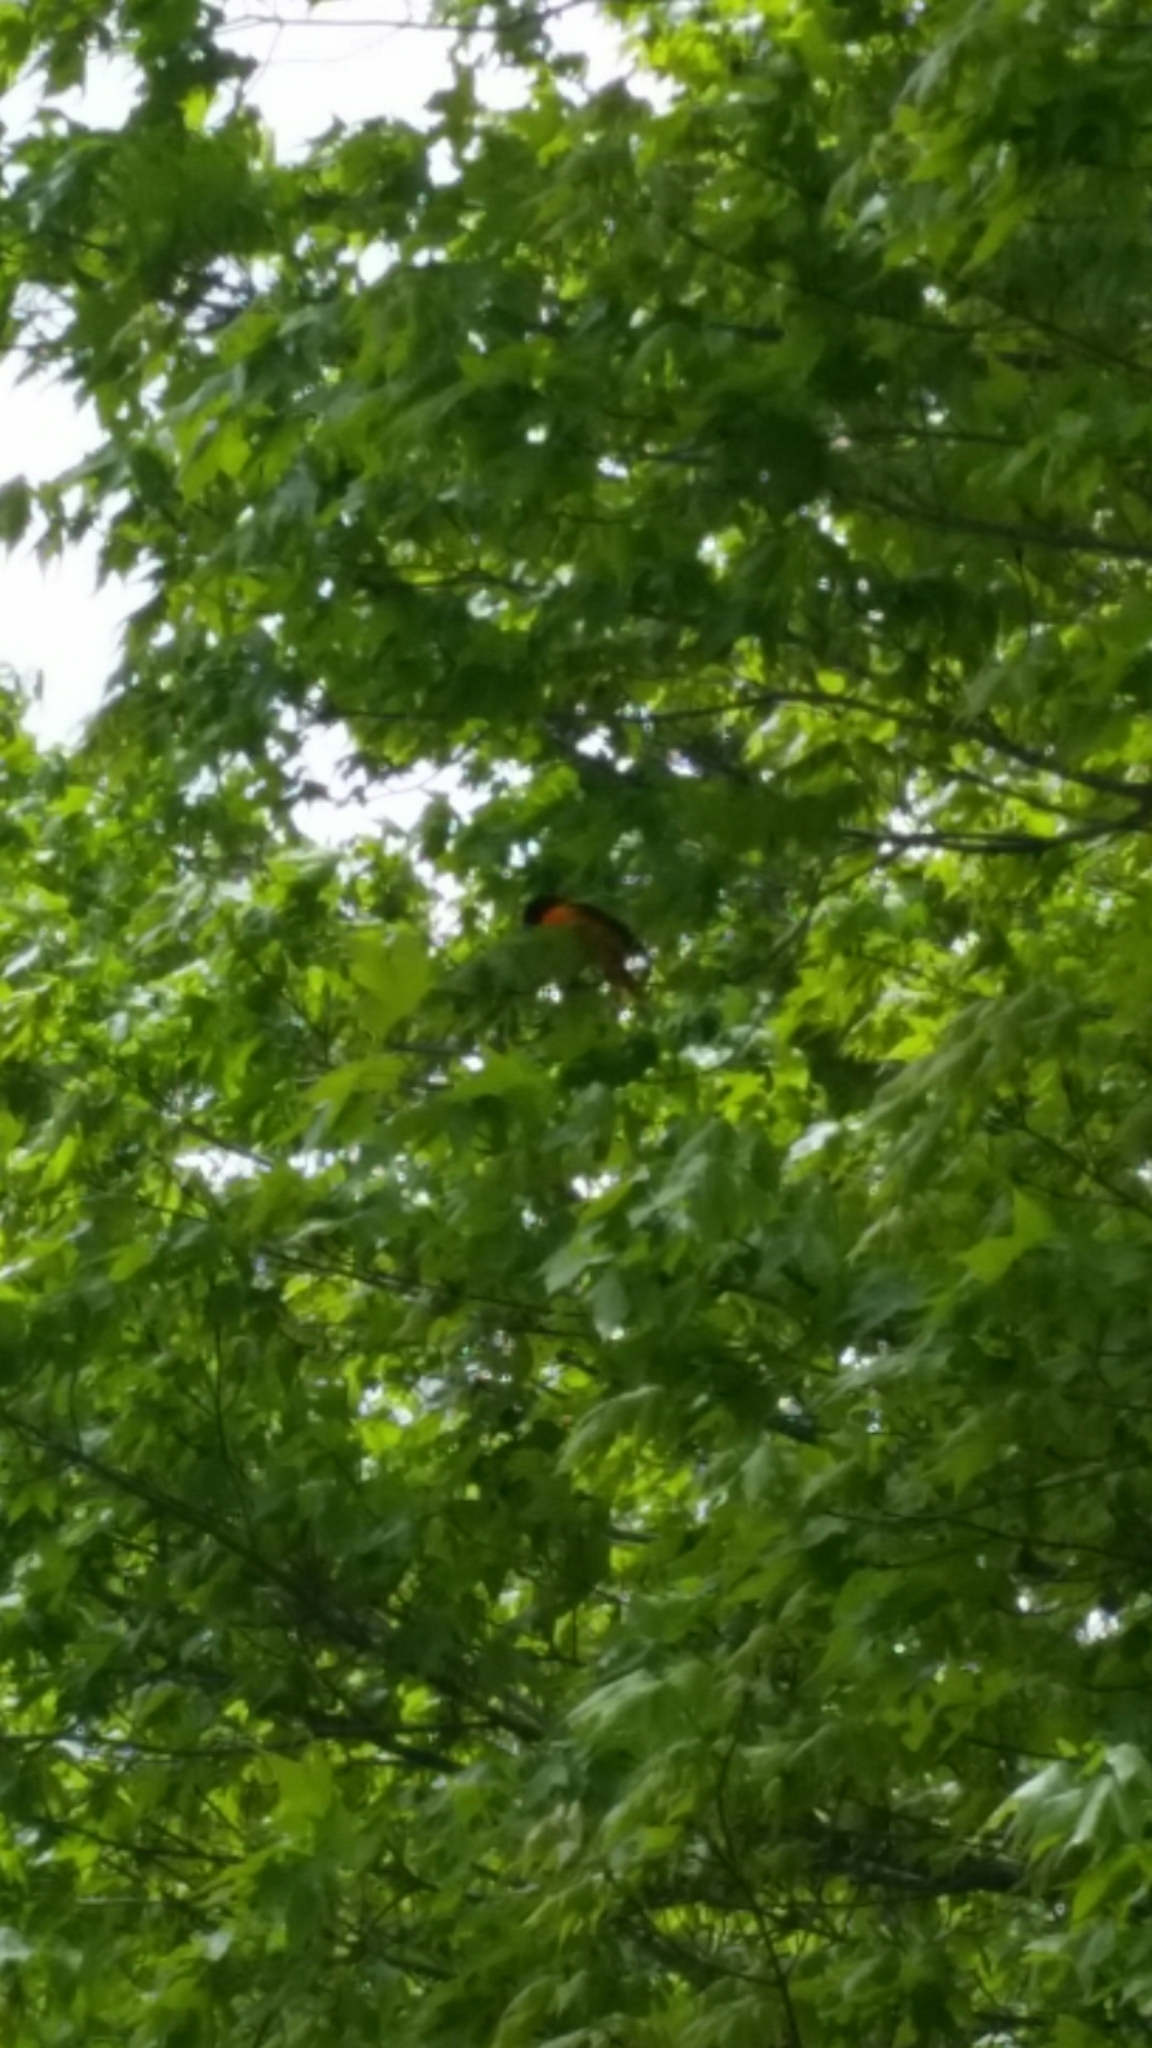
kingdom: Animalia
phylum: Chordata
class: Aves
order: Passeriformes
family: Icteridae
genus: Icterus
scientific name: Icterus galbula
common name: Baltimore oriole
